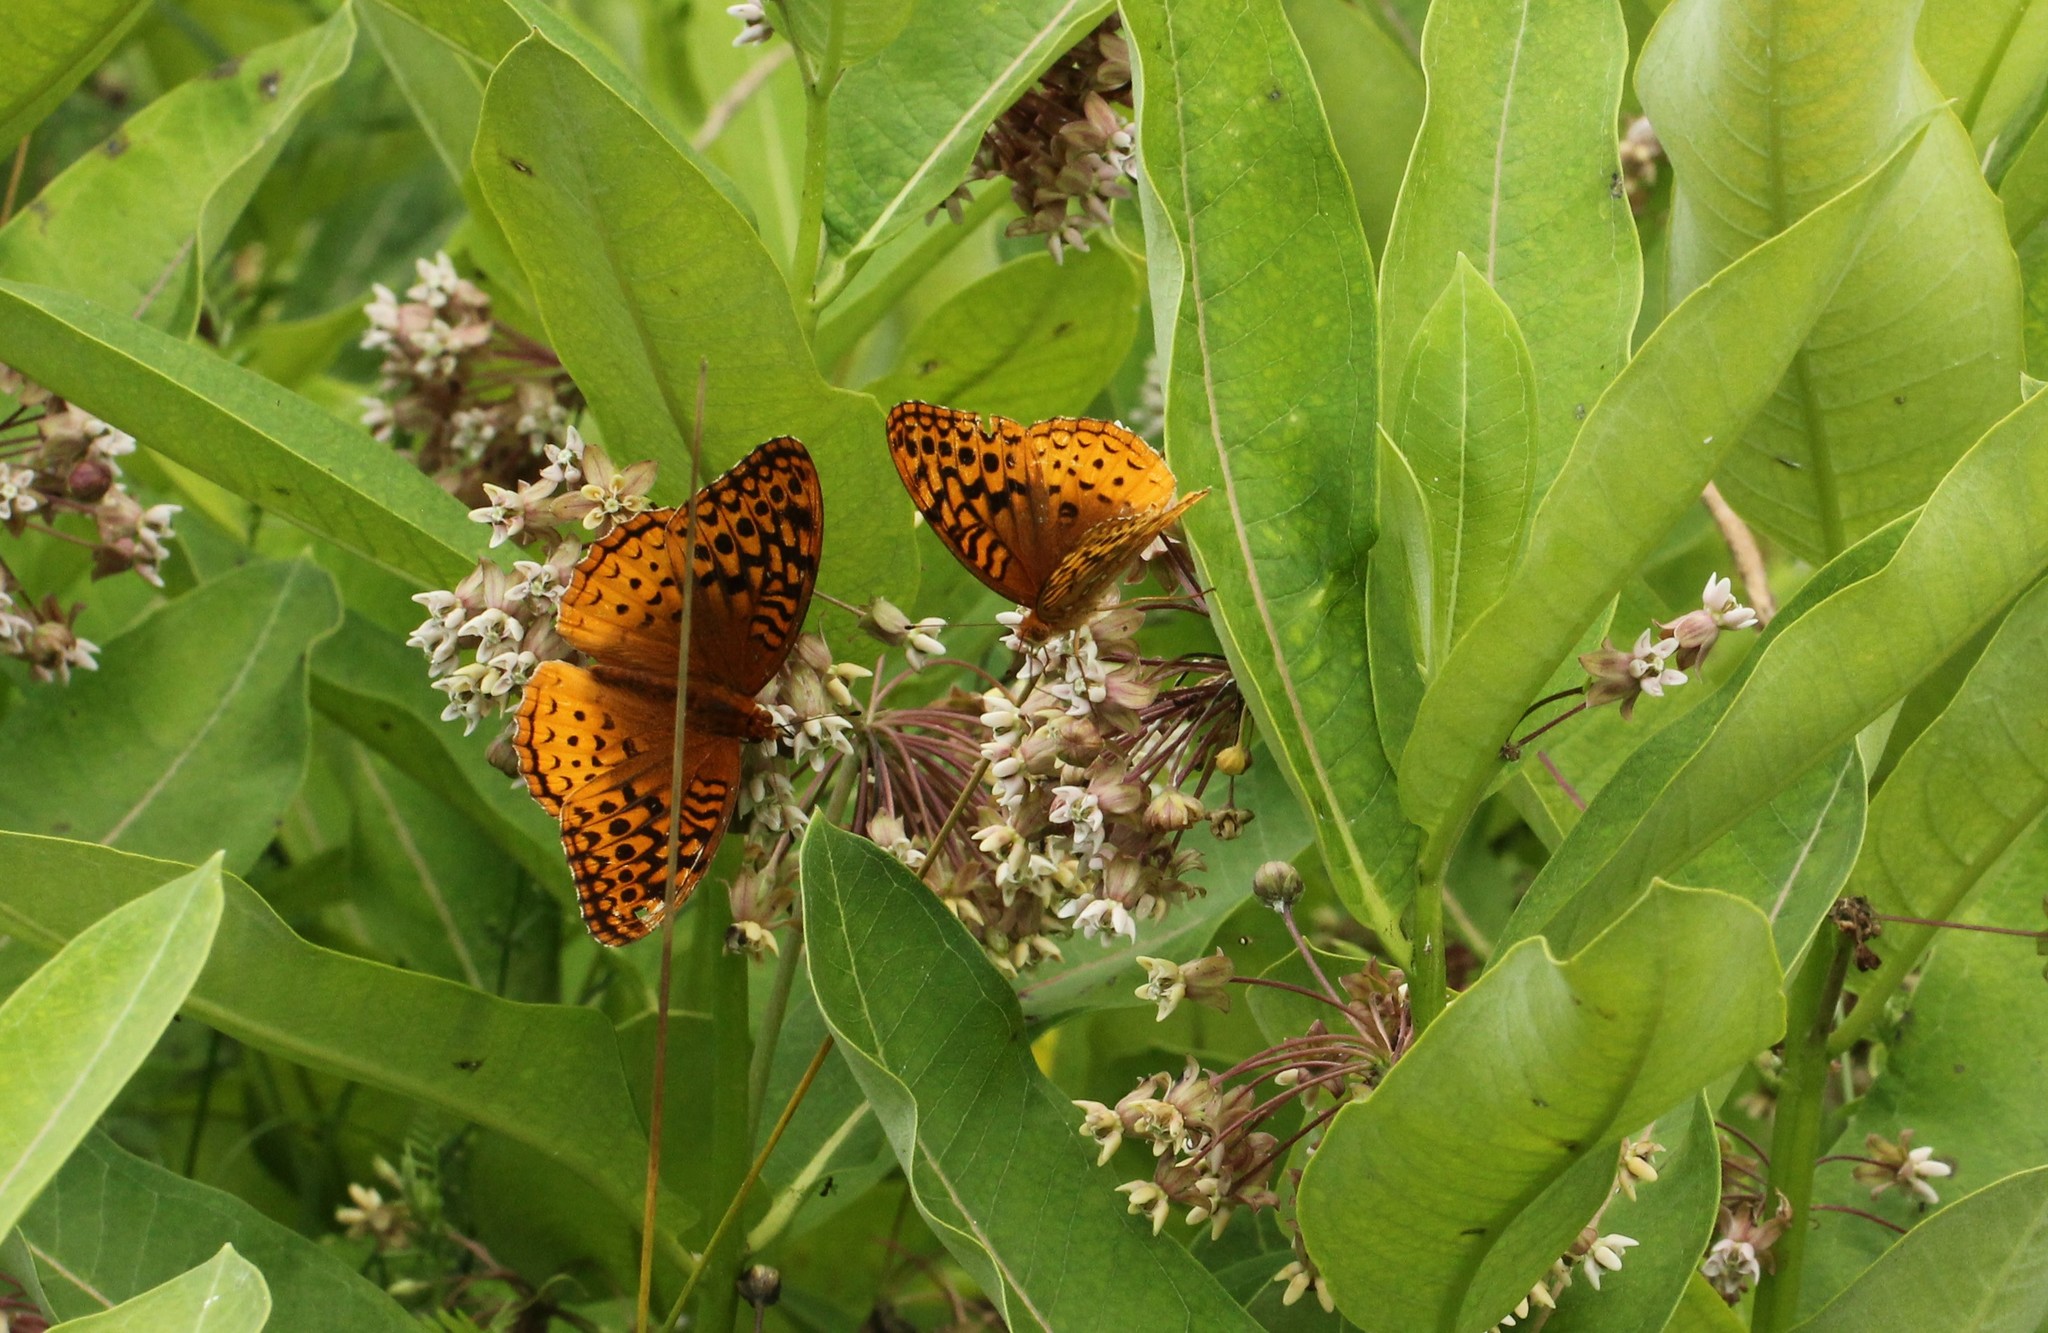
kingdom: Animalia
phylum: Arthropoda
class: Insecta
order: Lepidoptera
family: Nymphalidae
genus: Speyeria
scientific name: Speyeria cybele
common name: Great spangled fritillary
